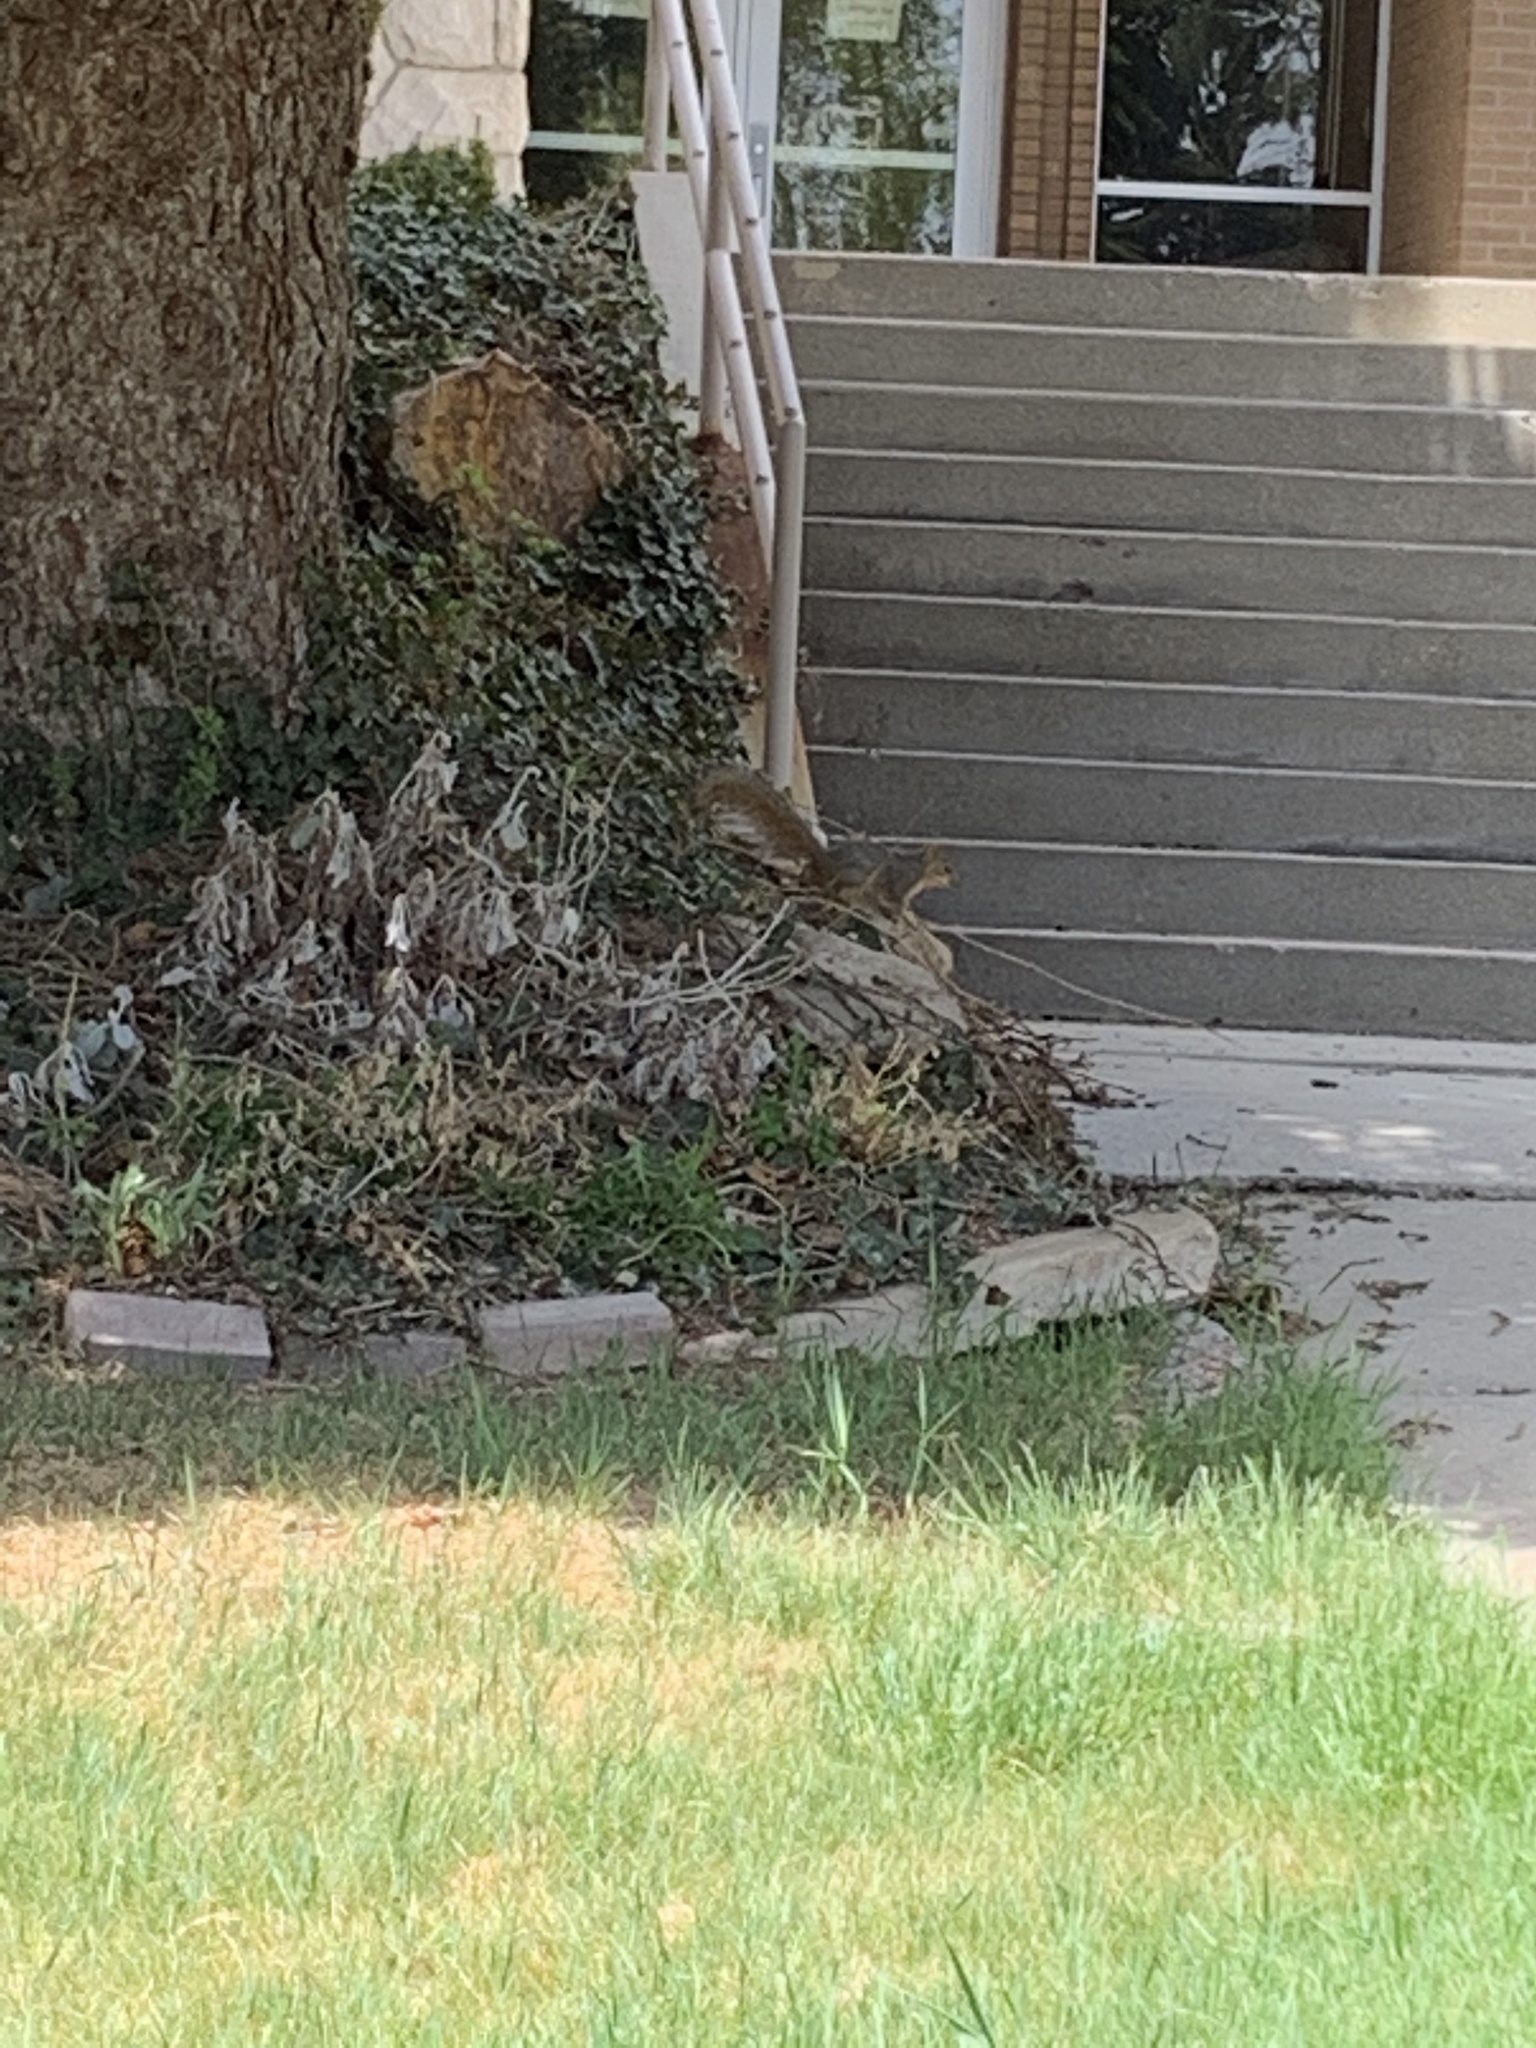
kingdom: Animalia
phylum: Chordata
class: Mammalia
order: Rodentia
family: Sciuridae
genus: Sciurus
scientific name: Sciurus niger
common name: Fox squirrel
